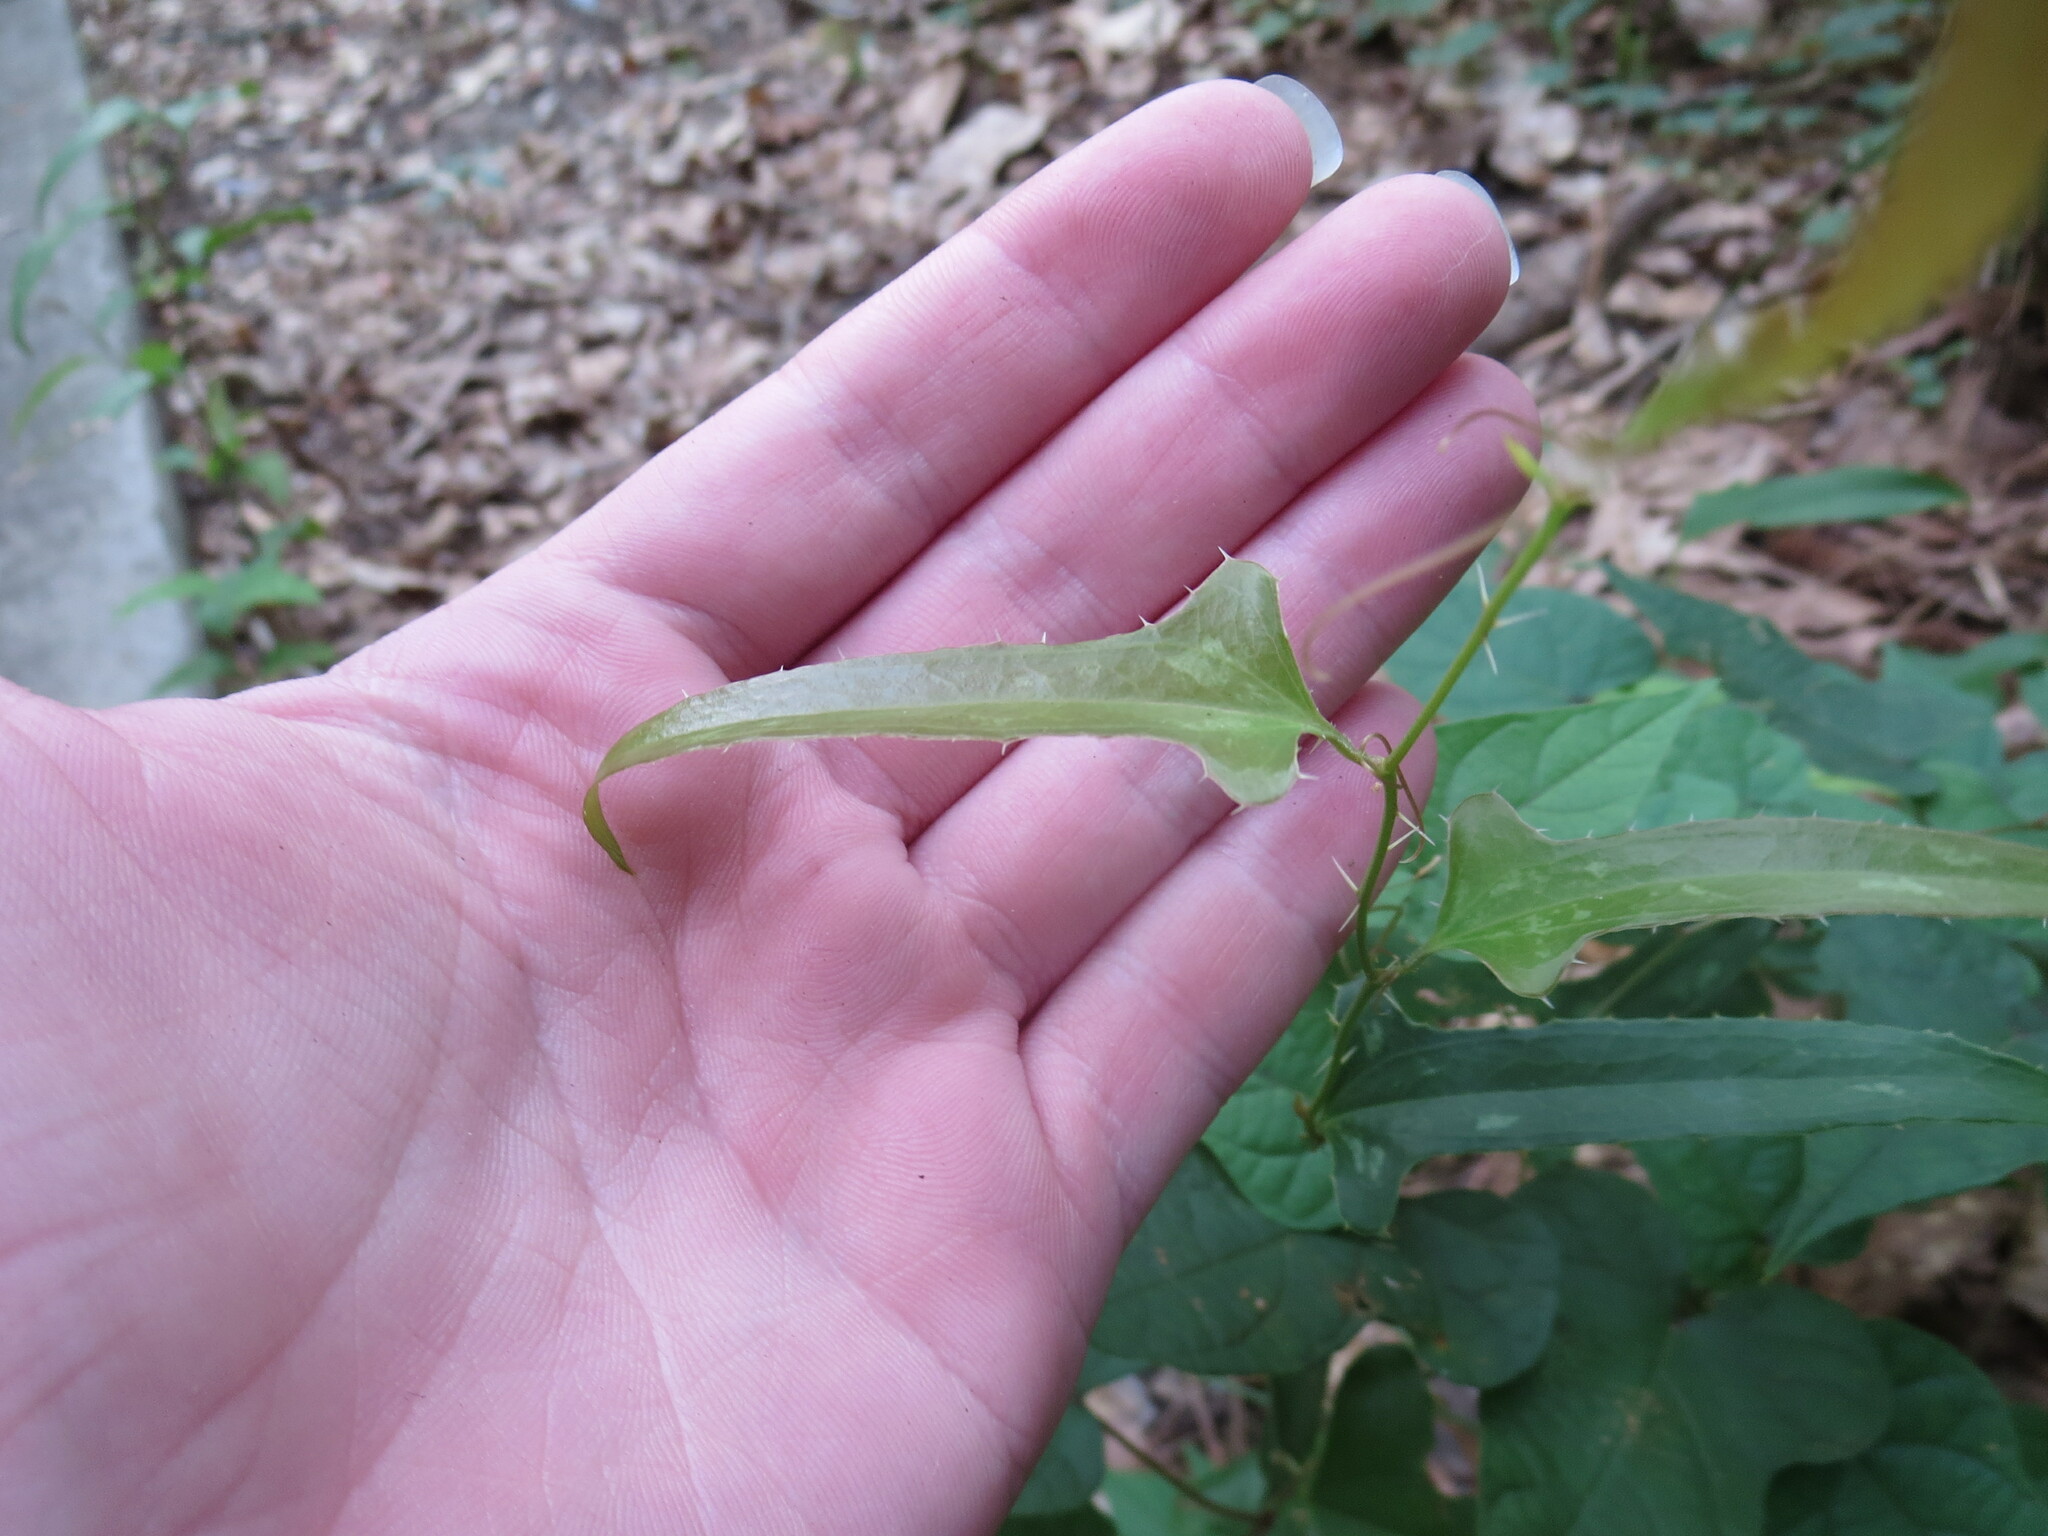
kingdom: Plantae
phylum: Tracheophyta
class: Liliopsida
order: Liliales
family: Smilacaceae
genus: Smilax
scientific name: Smilax bona-nox
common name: Catbrier
